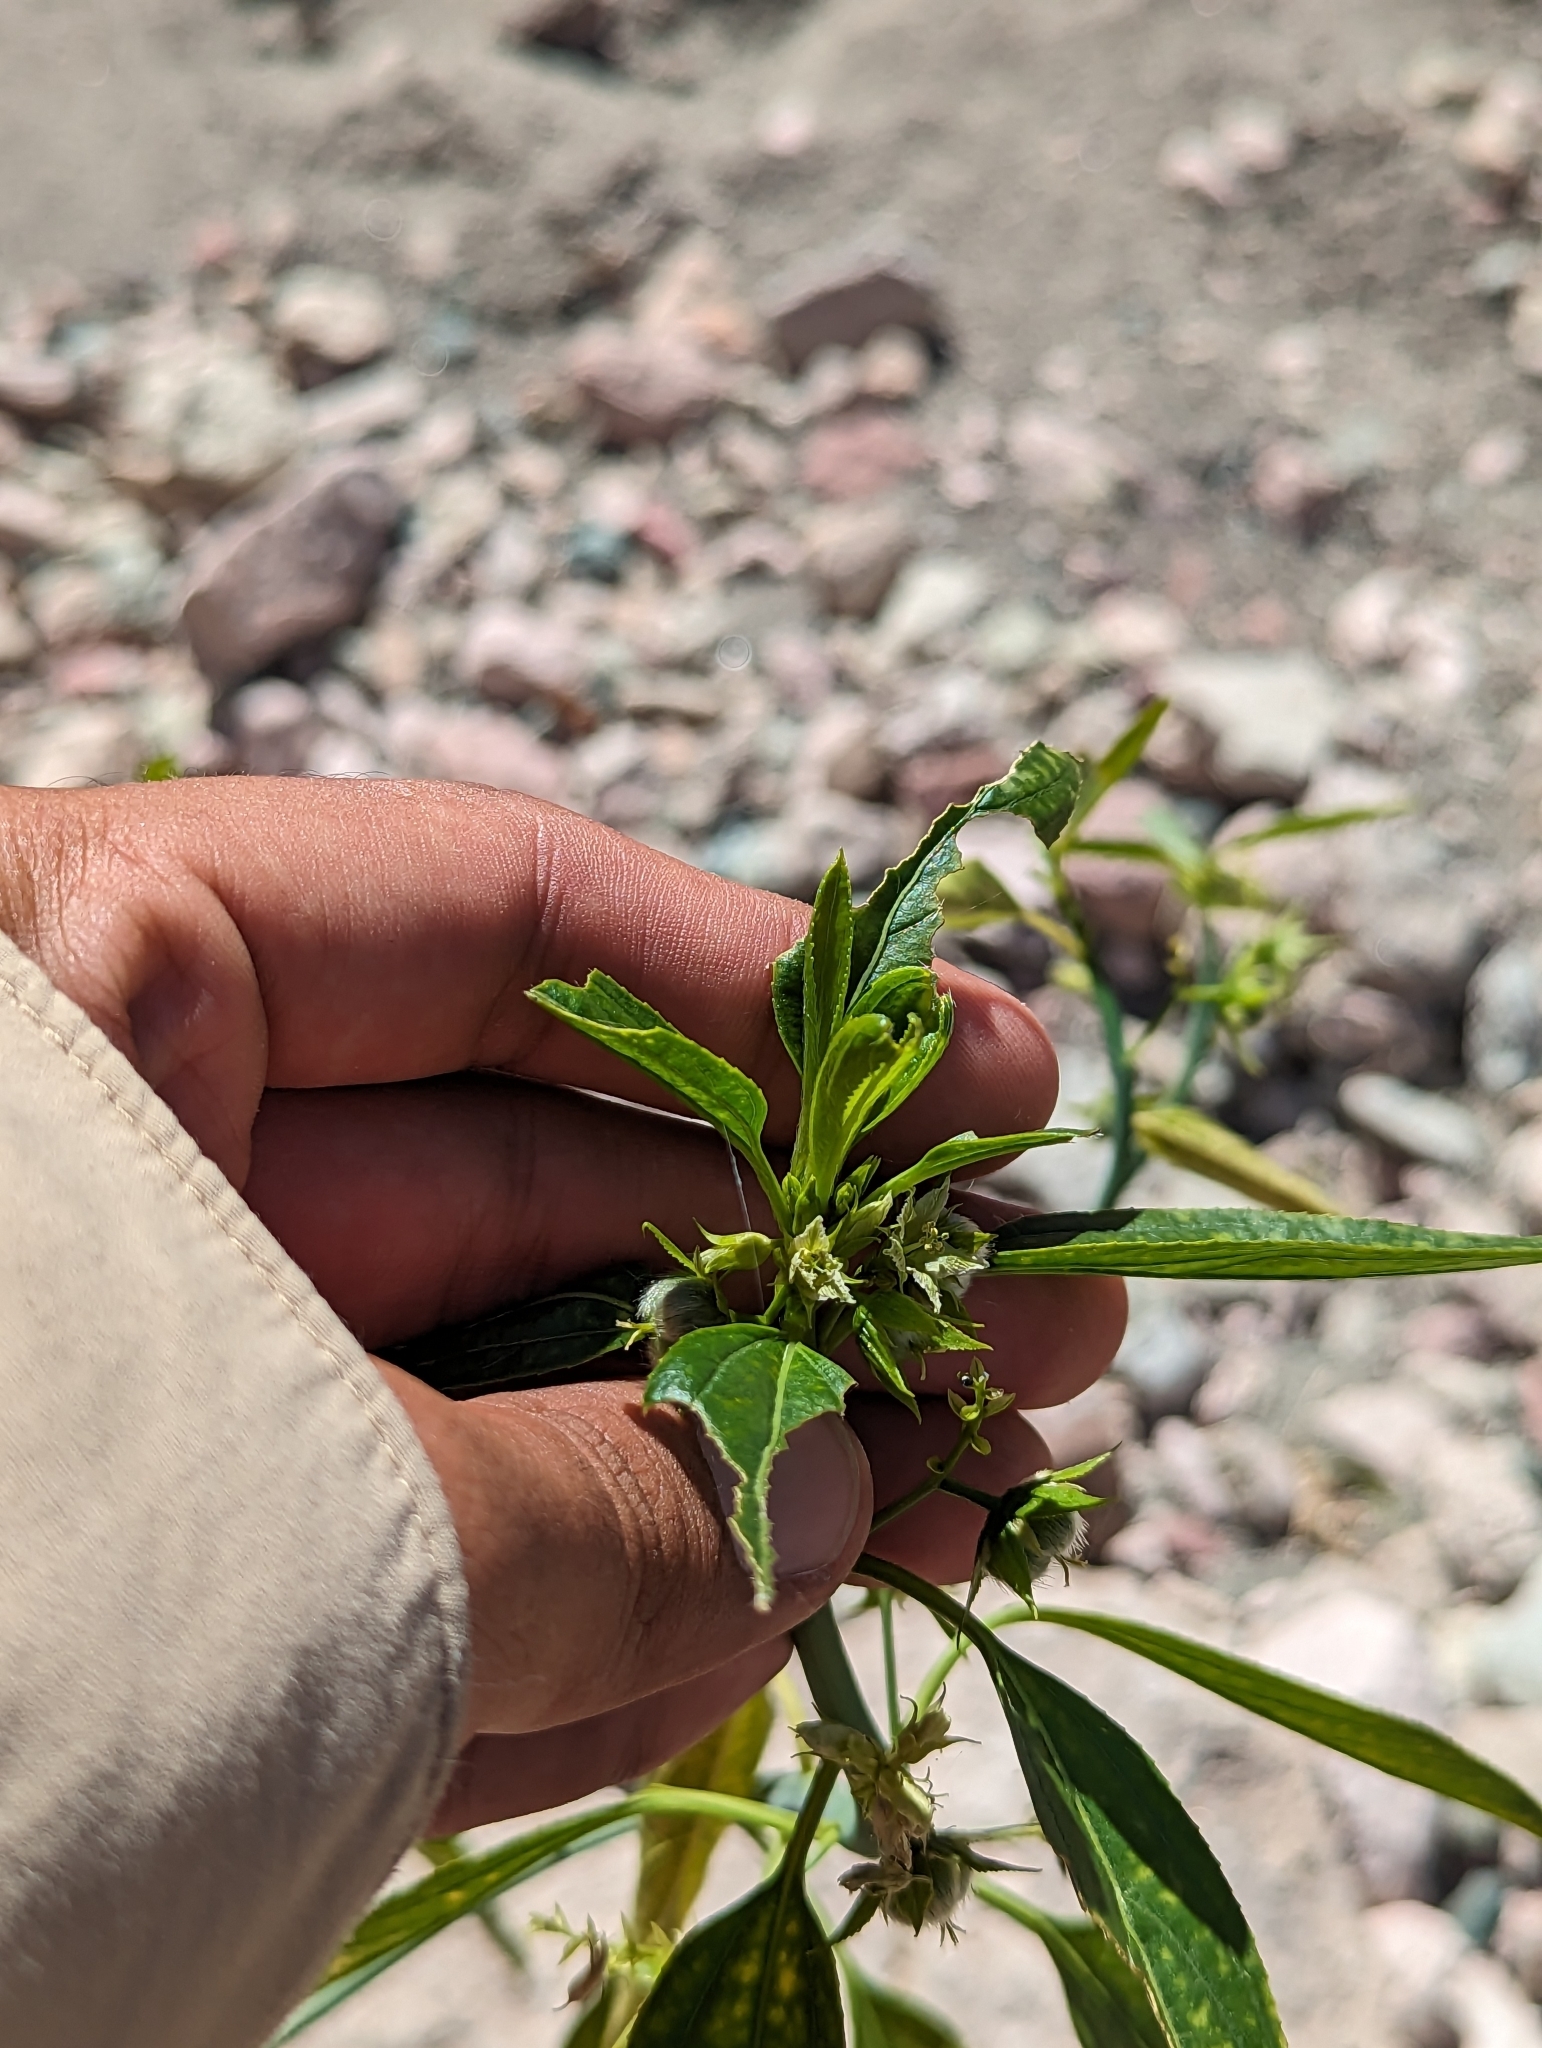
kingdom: Plantae
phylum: Tracheophyta
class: Magnoliopsida
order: Malpighiales
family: Euphorbiaceae
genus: Ditaxis
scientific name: Ditaxis brandegeei
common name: Sonoran silverbush
